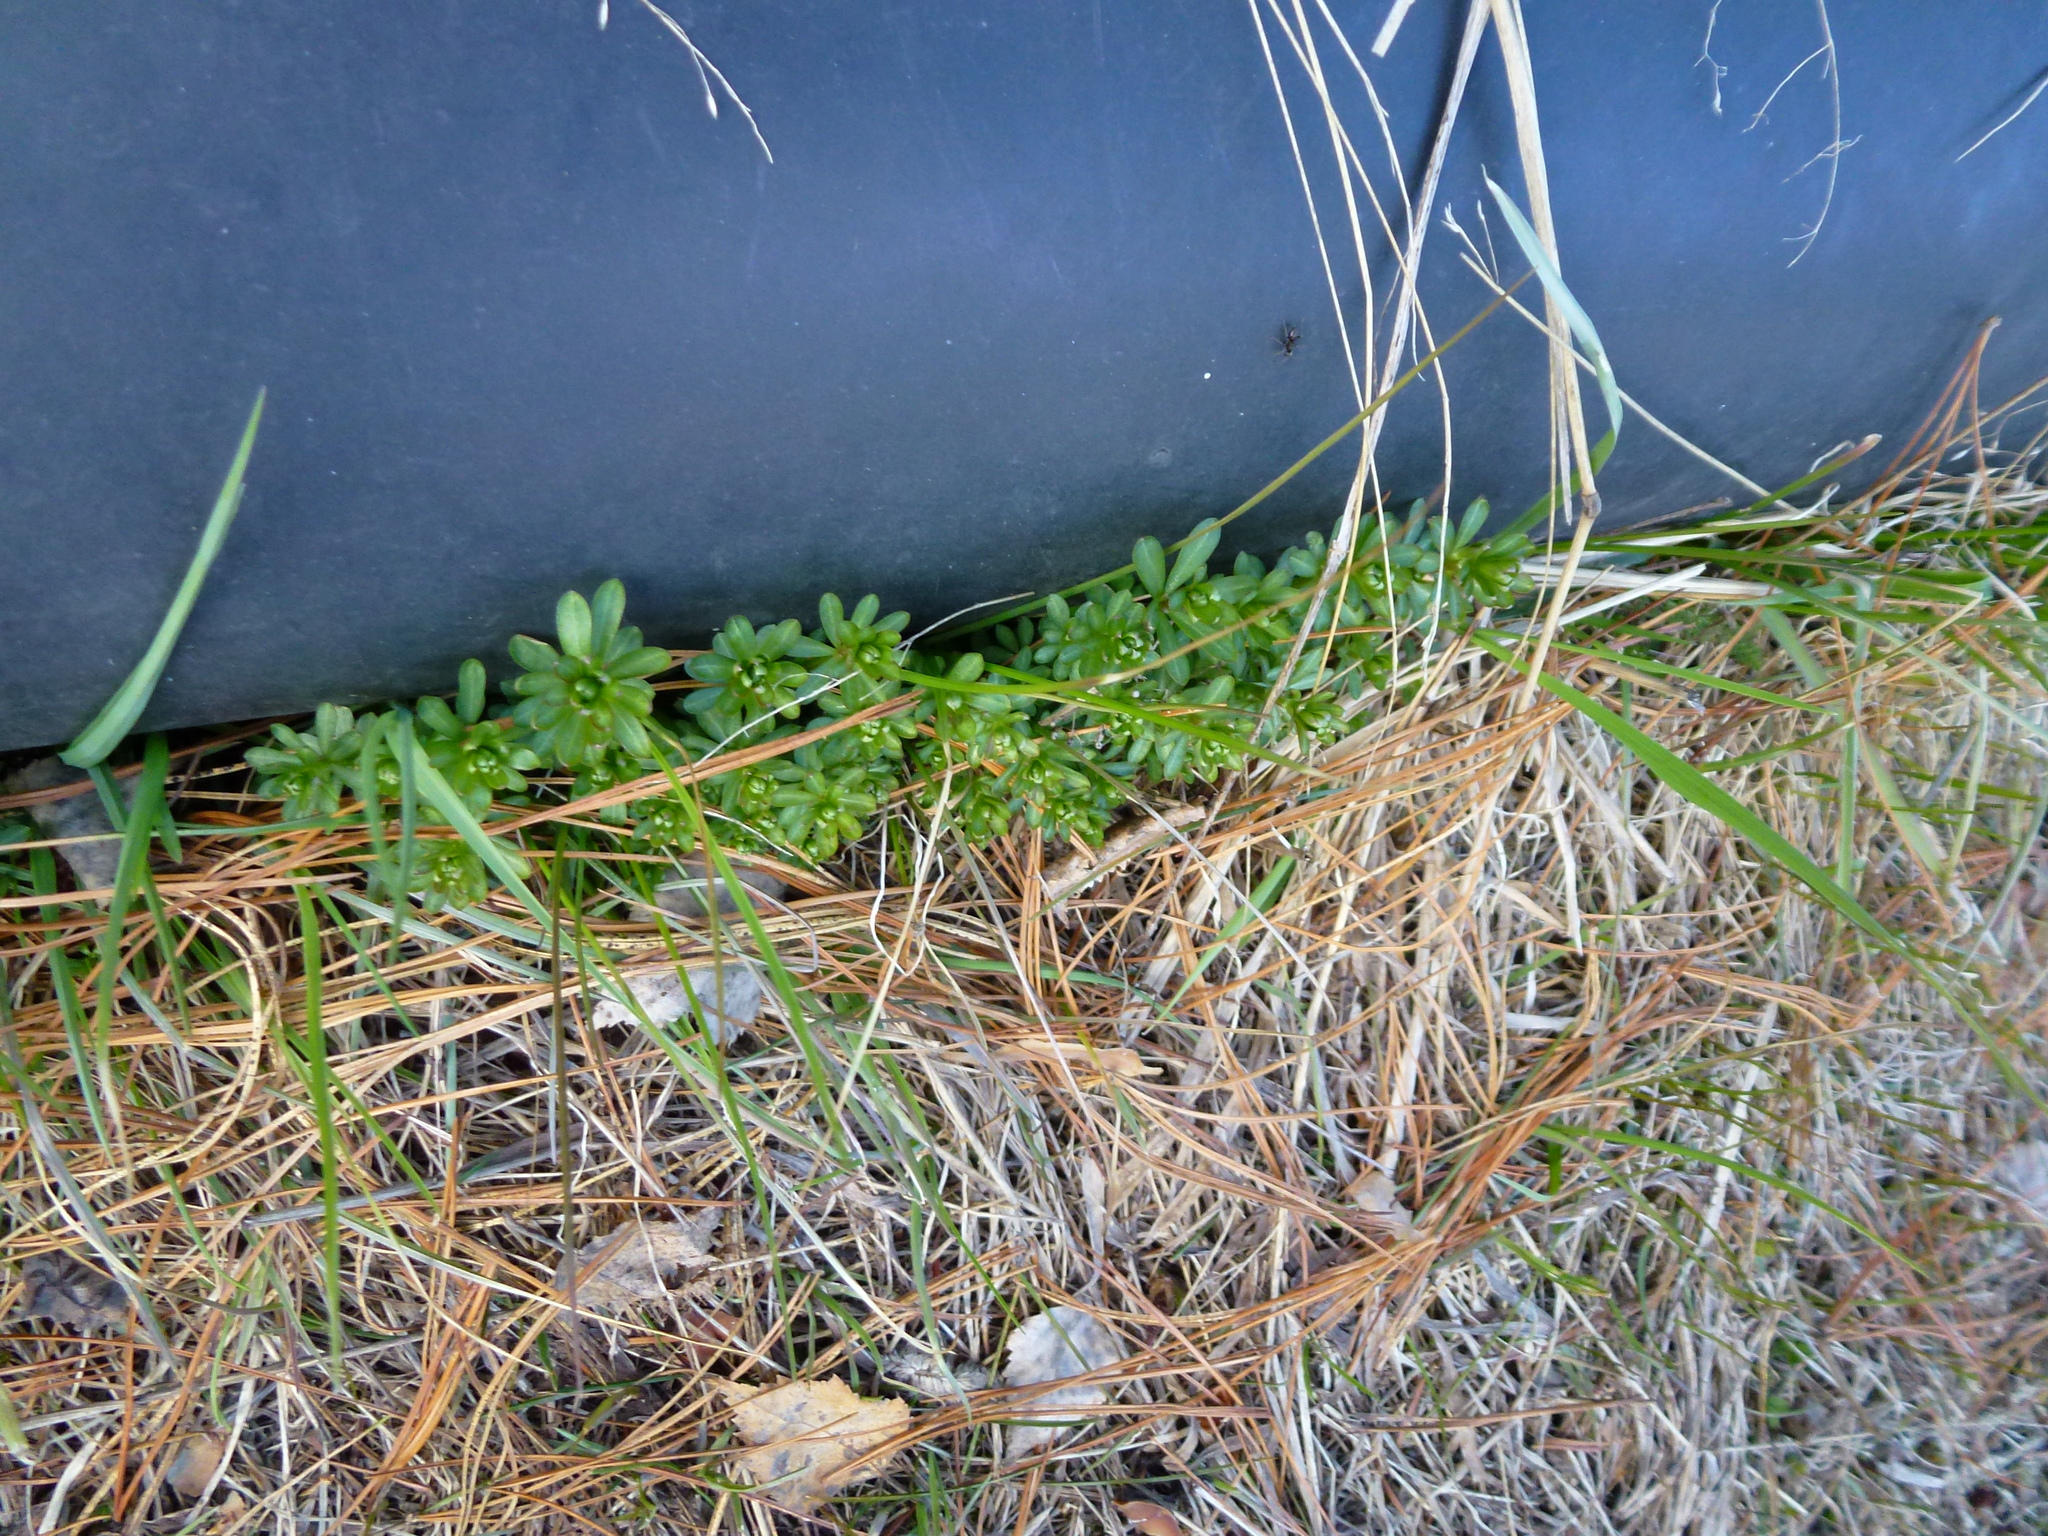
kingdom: Plantae
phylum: Tracheophyta
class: Magnoliopsida
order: Gentianales
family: Rubiaceae
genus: Galium
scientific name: Galium mollugo
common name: Hedge bedstraw
